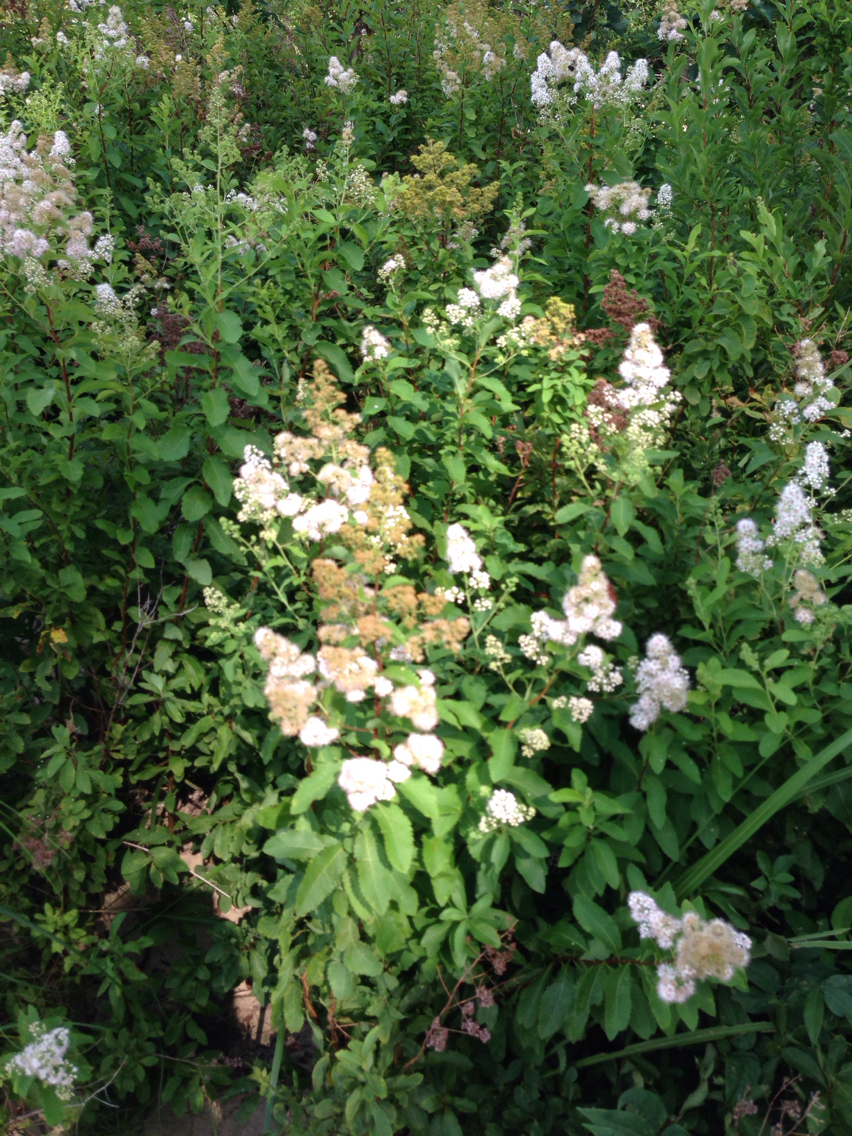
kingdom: Plantae
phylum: Tracheophyta
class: Magnoliopsida
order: Rosales
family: Rosaceae
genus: Spiraea
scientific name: Spiraea alba
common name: Pale bridewort
